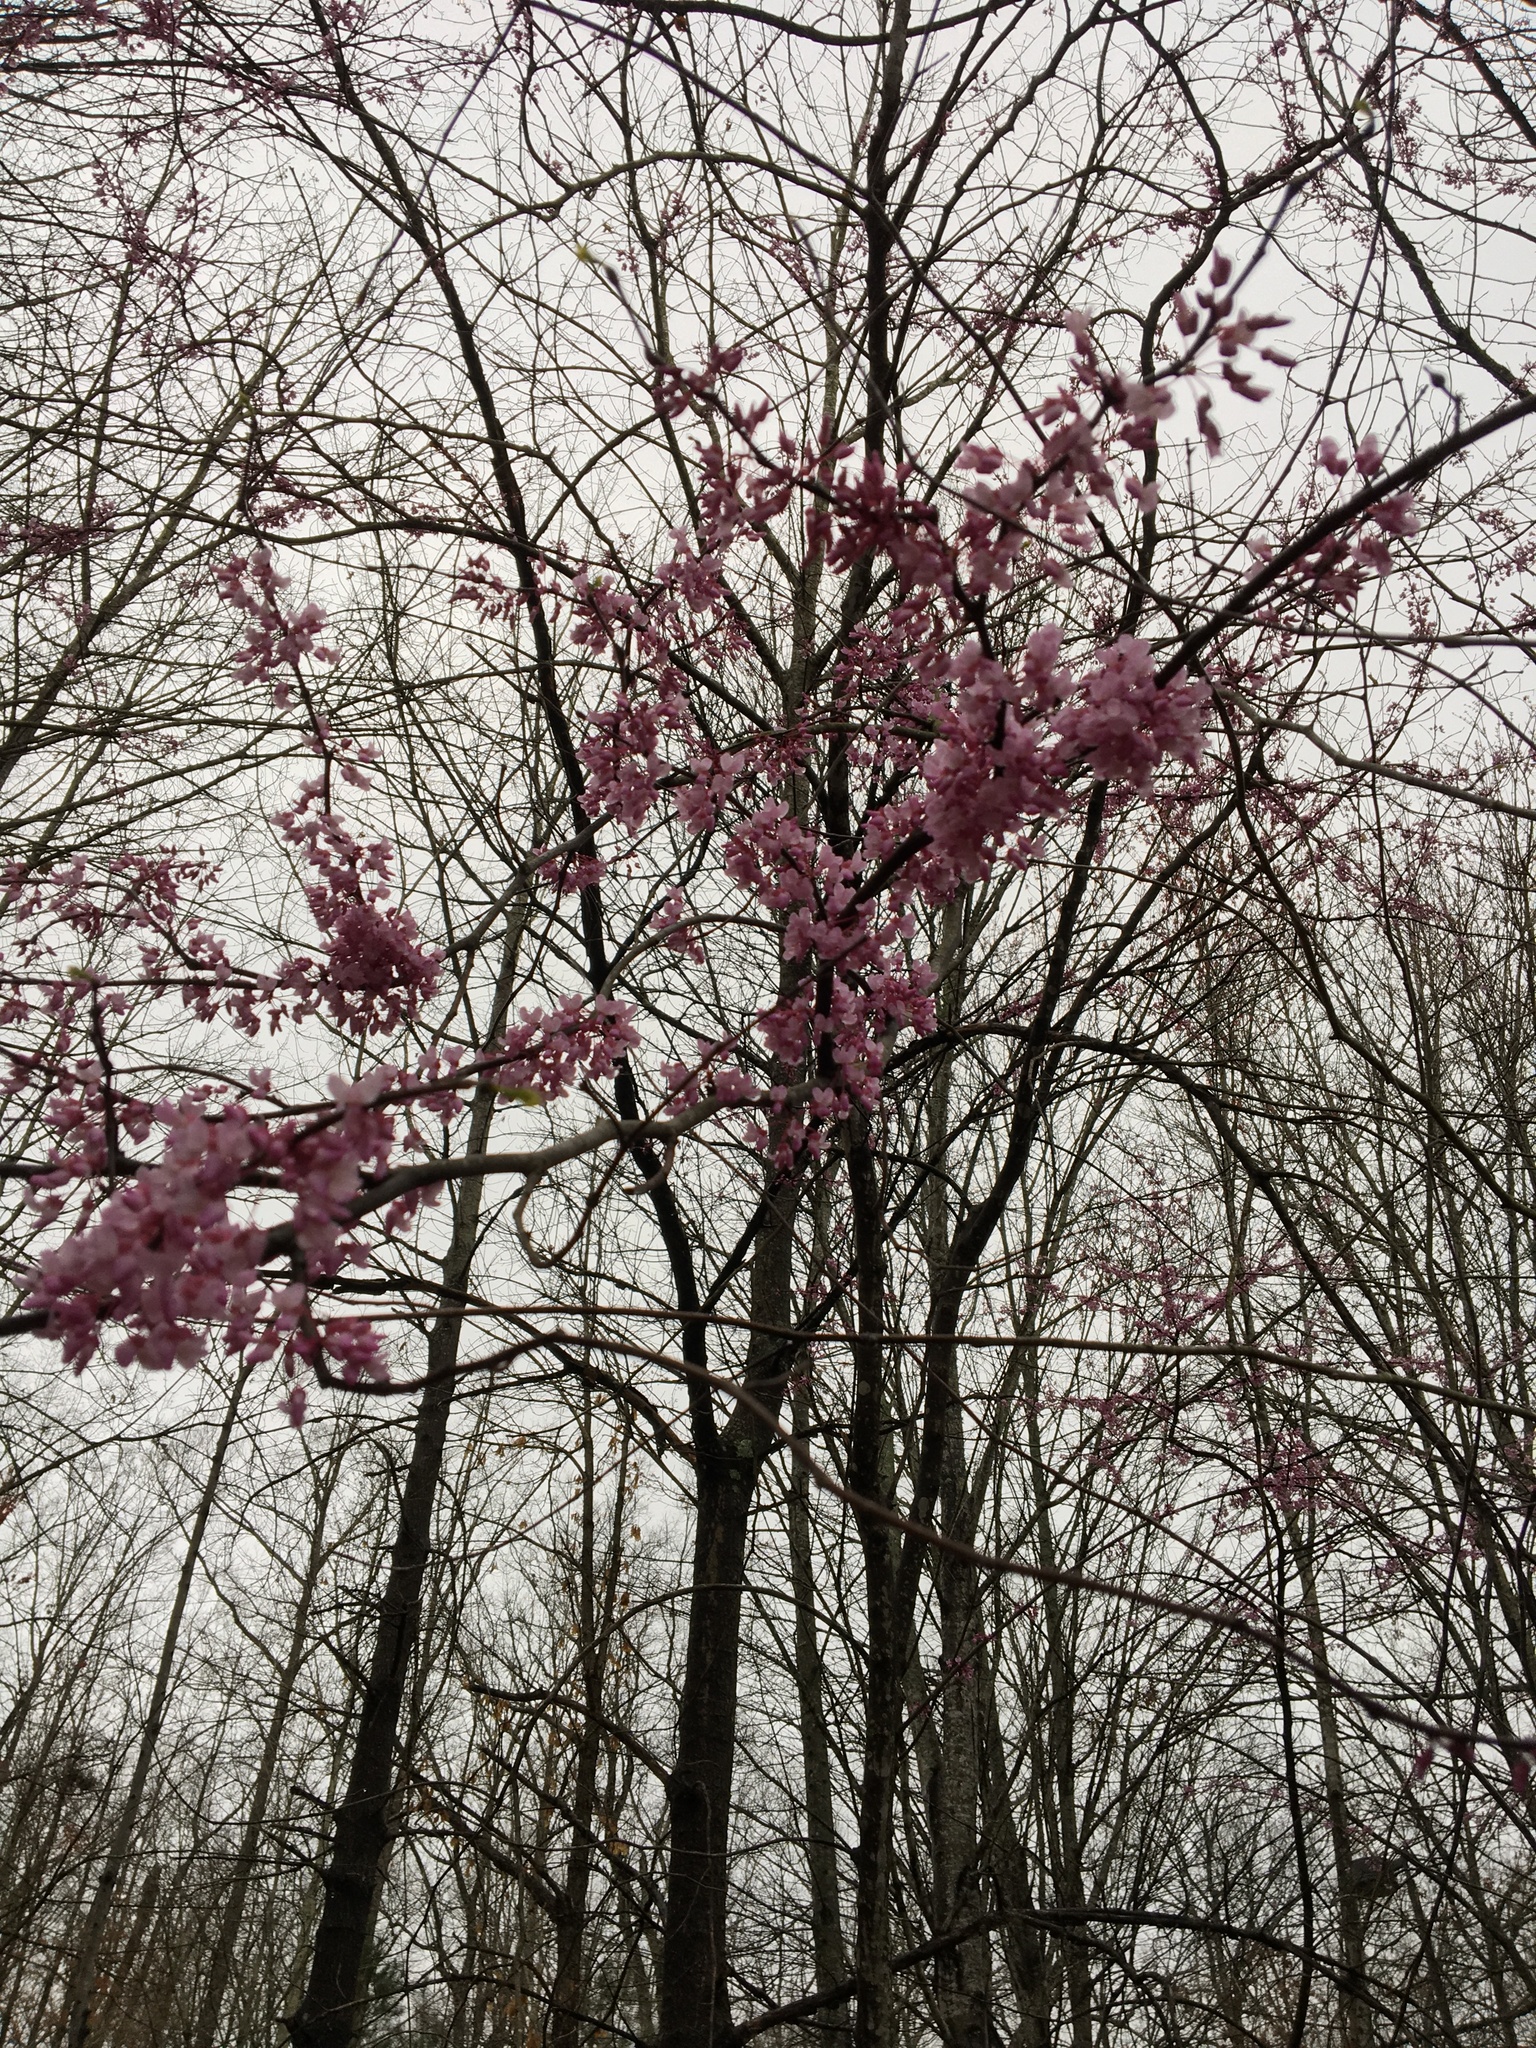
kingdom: Plantae
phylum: Tracheophyta
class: Magnoliopsida
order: Fabales
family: Fabaceae
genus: Cercis
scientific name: Cercis canadensis
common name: Eastern redbud
